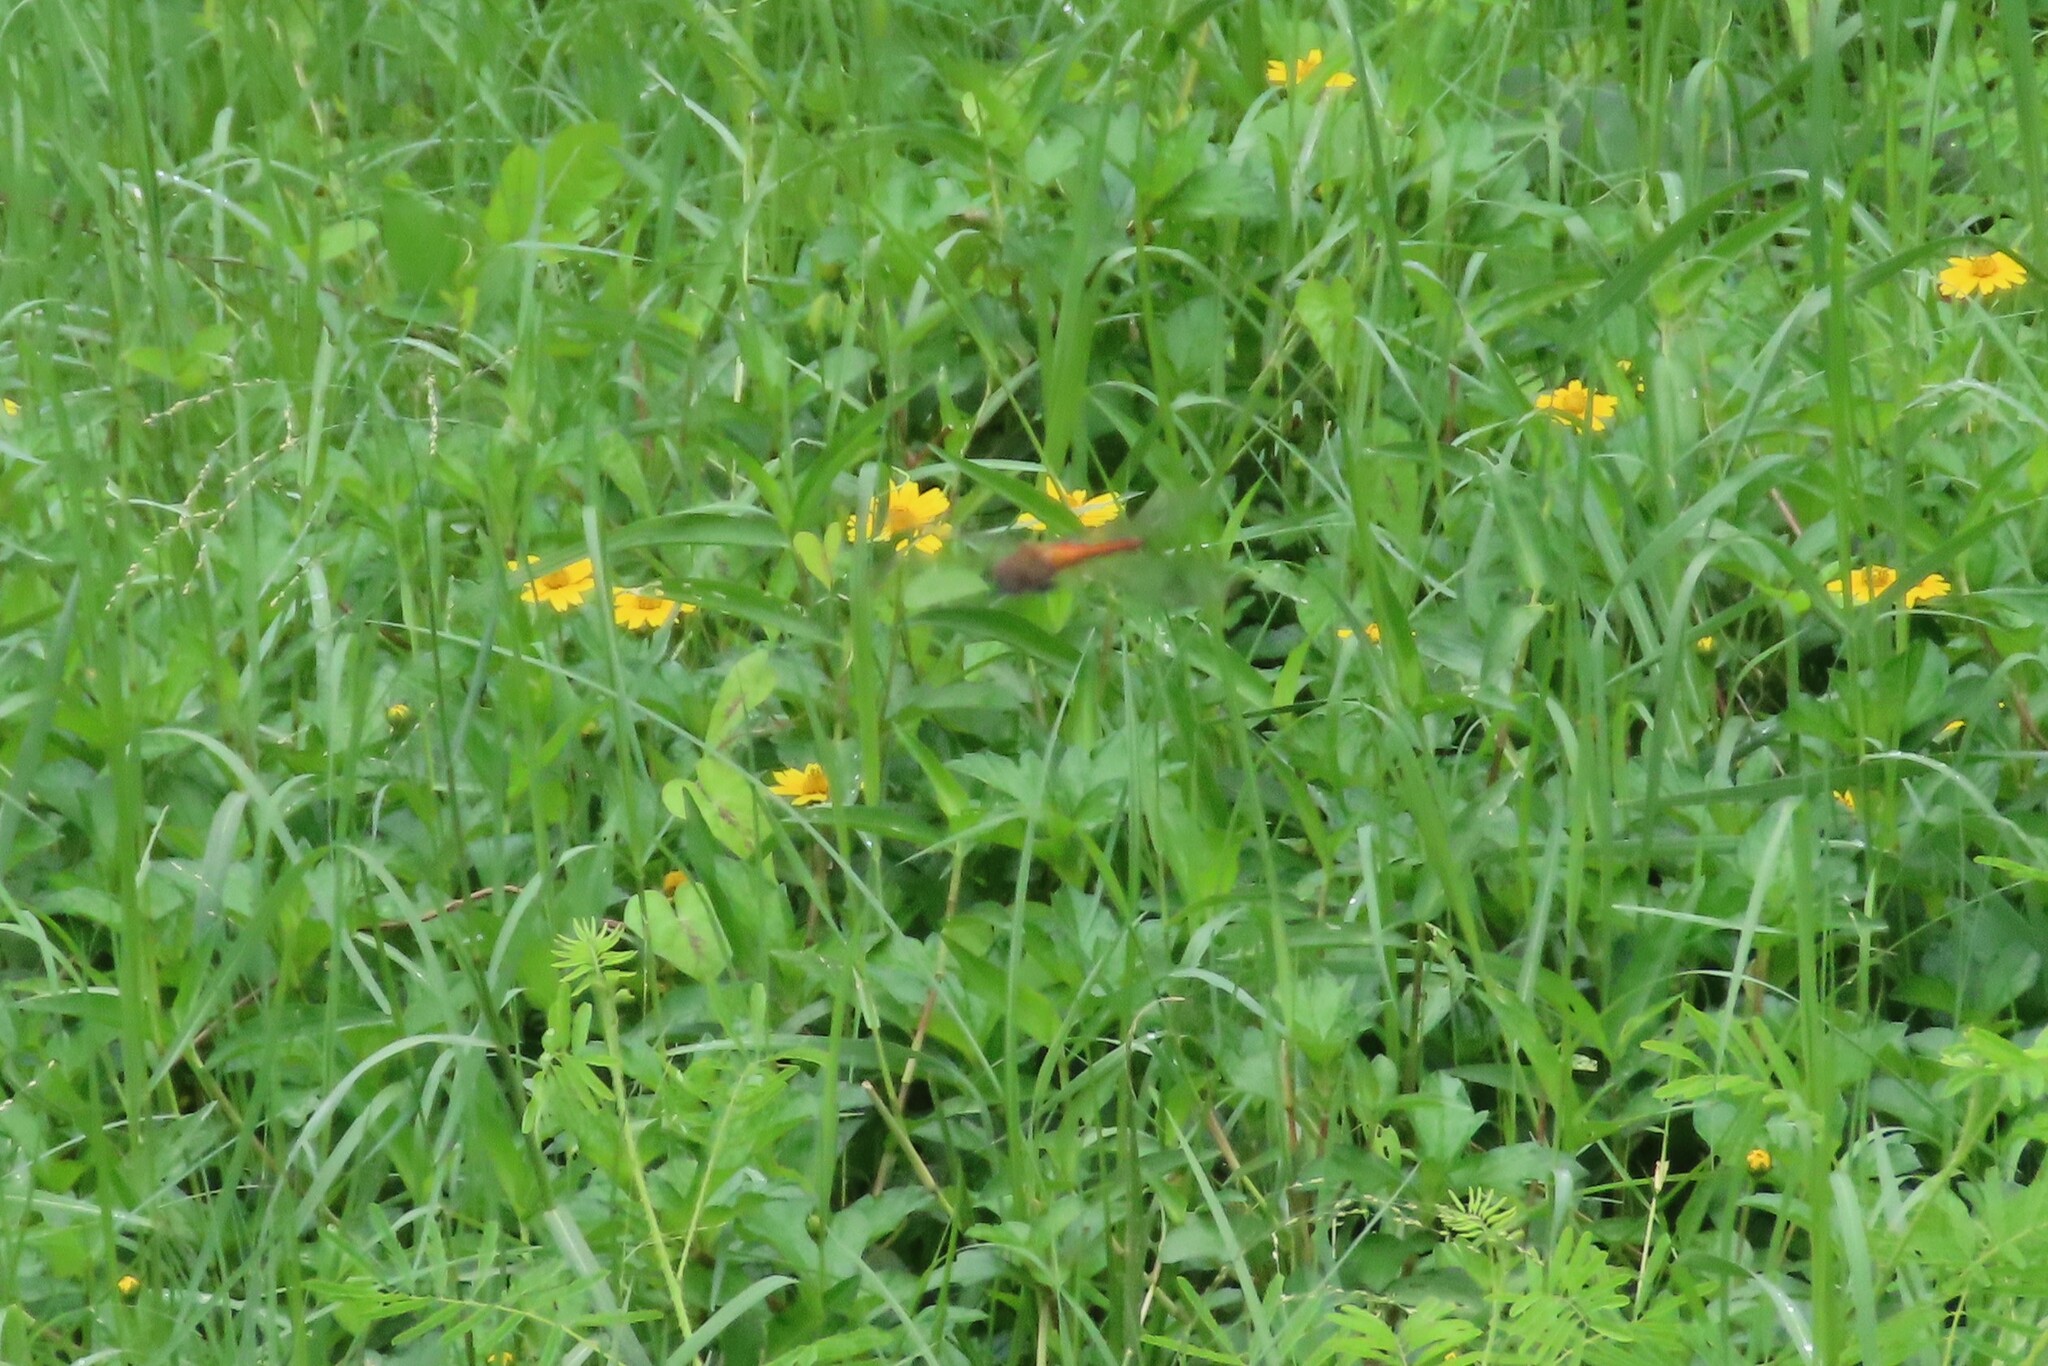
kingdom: Animalia
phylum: Arthropoda
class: Insecta
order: Odonata
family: Libellulidae
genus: Pantala
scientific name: Pantala flavescens
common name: Wandering glider
